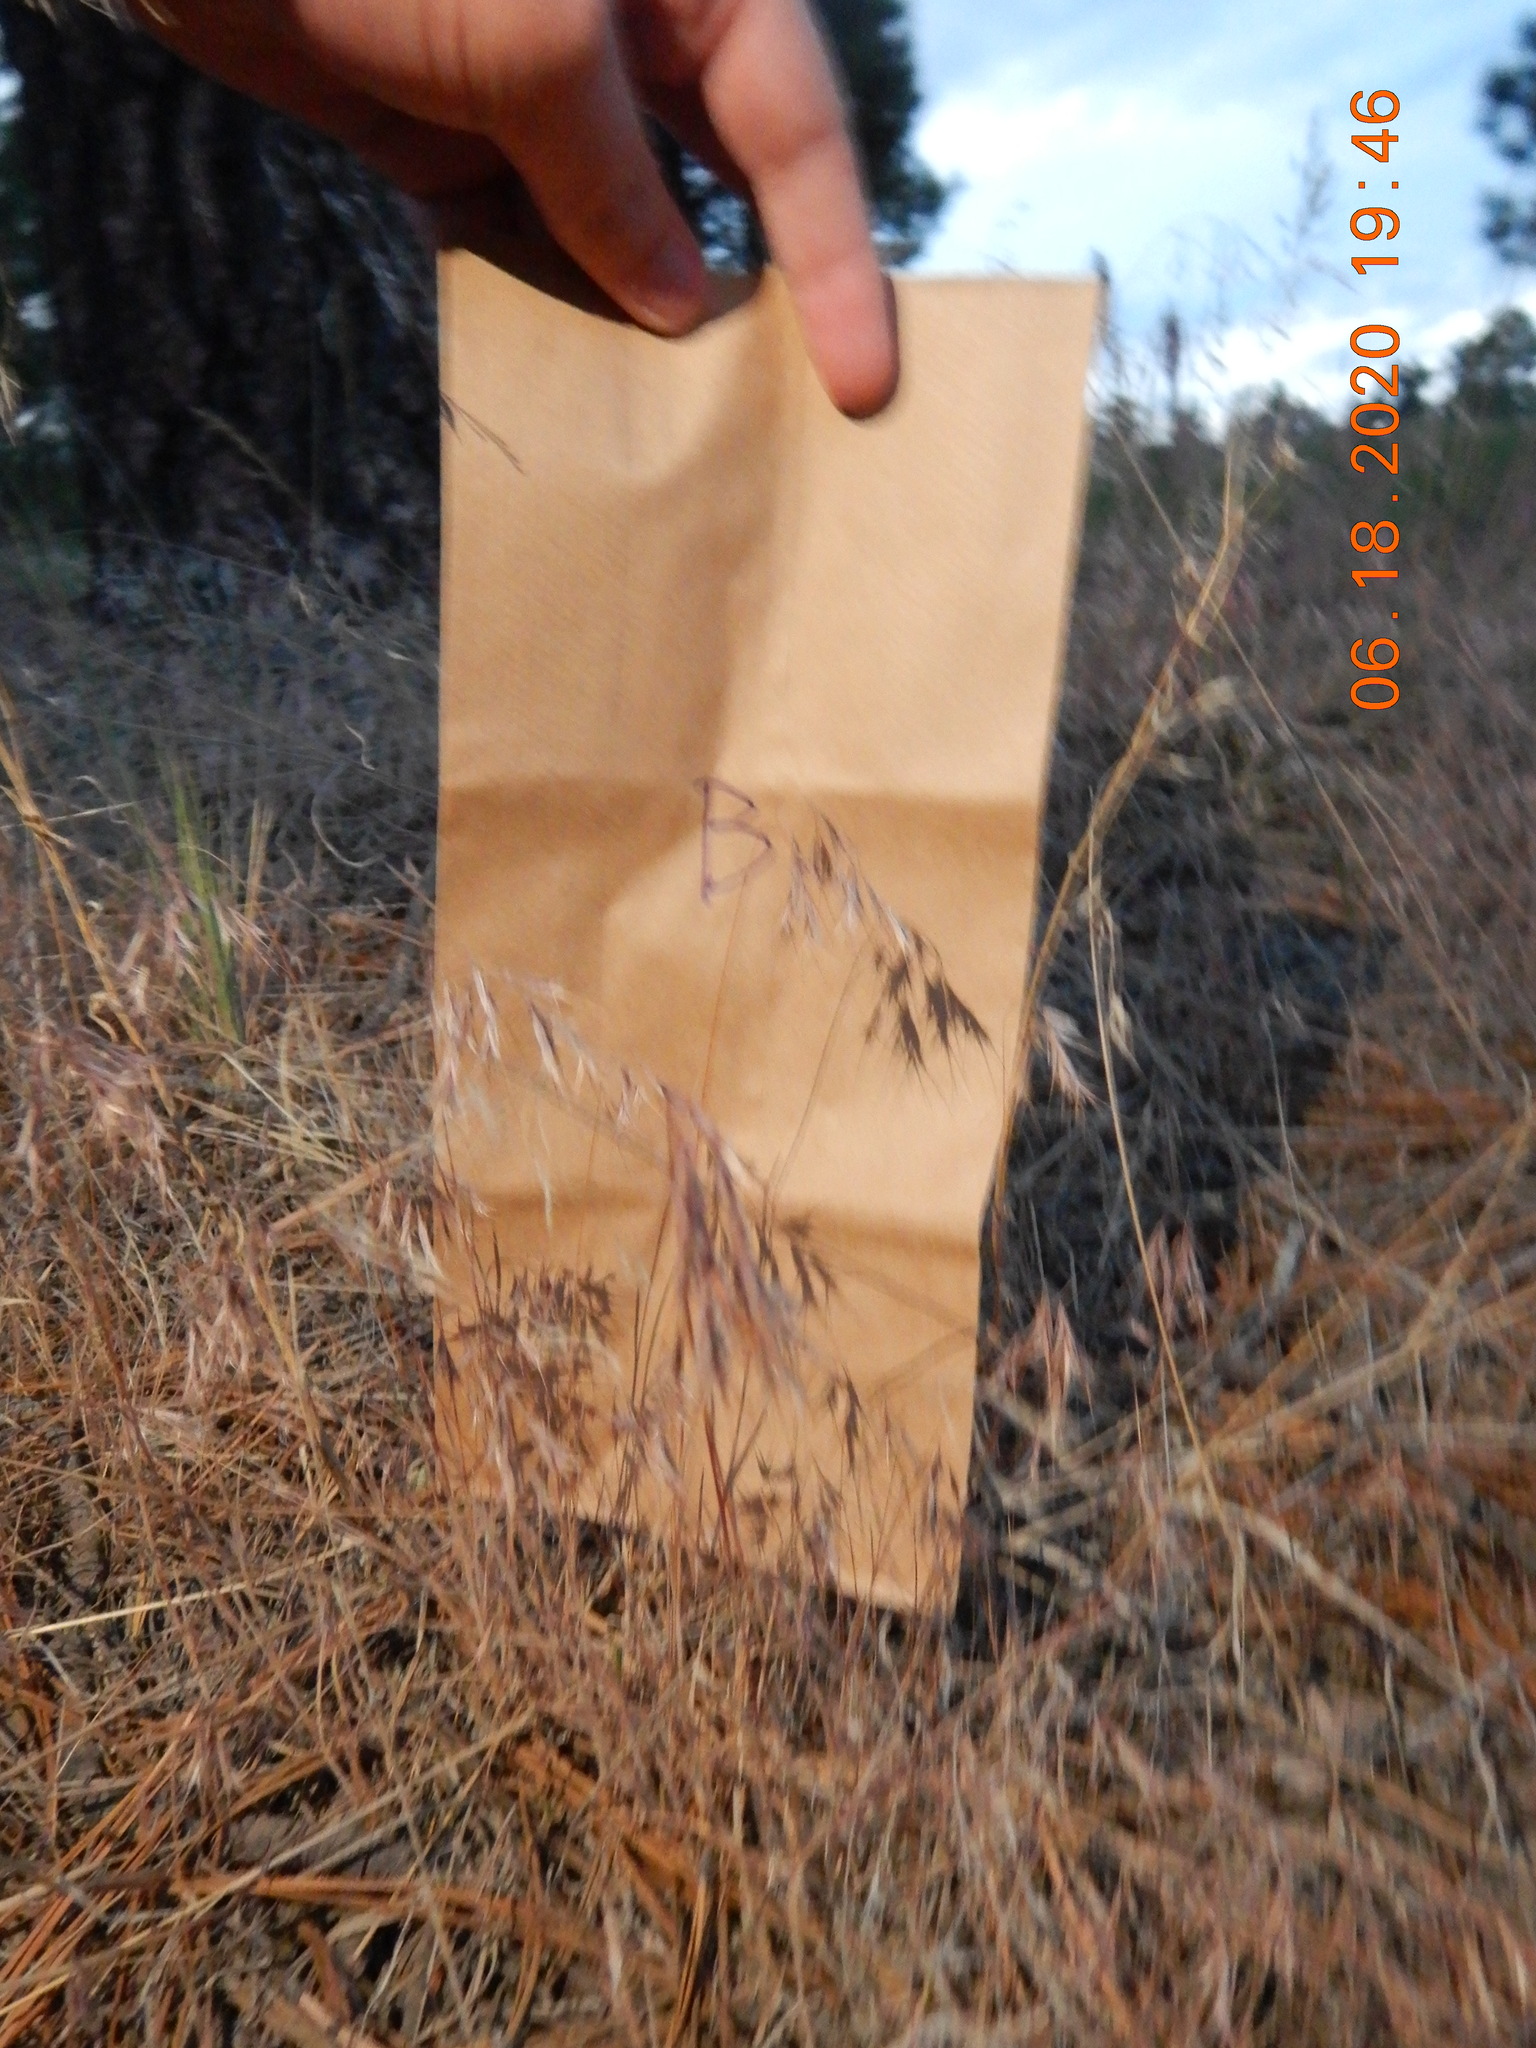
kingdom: Plantae
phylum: Tracheophyta
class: Liliopsida
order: Poales
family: Poaceae
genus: Bromus
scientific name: Bromus tectorum
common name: Cheatgrass
